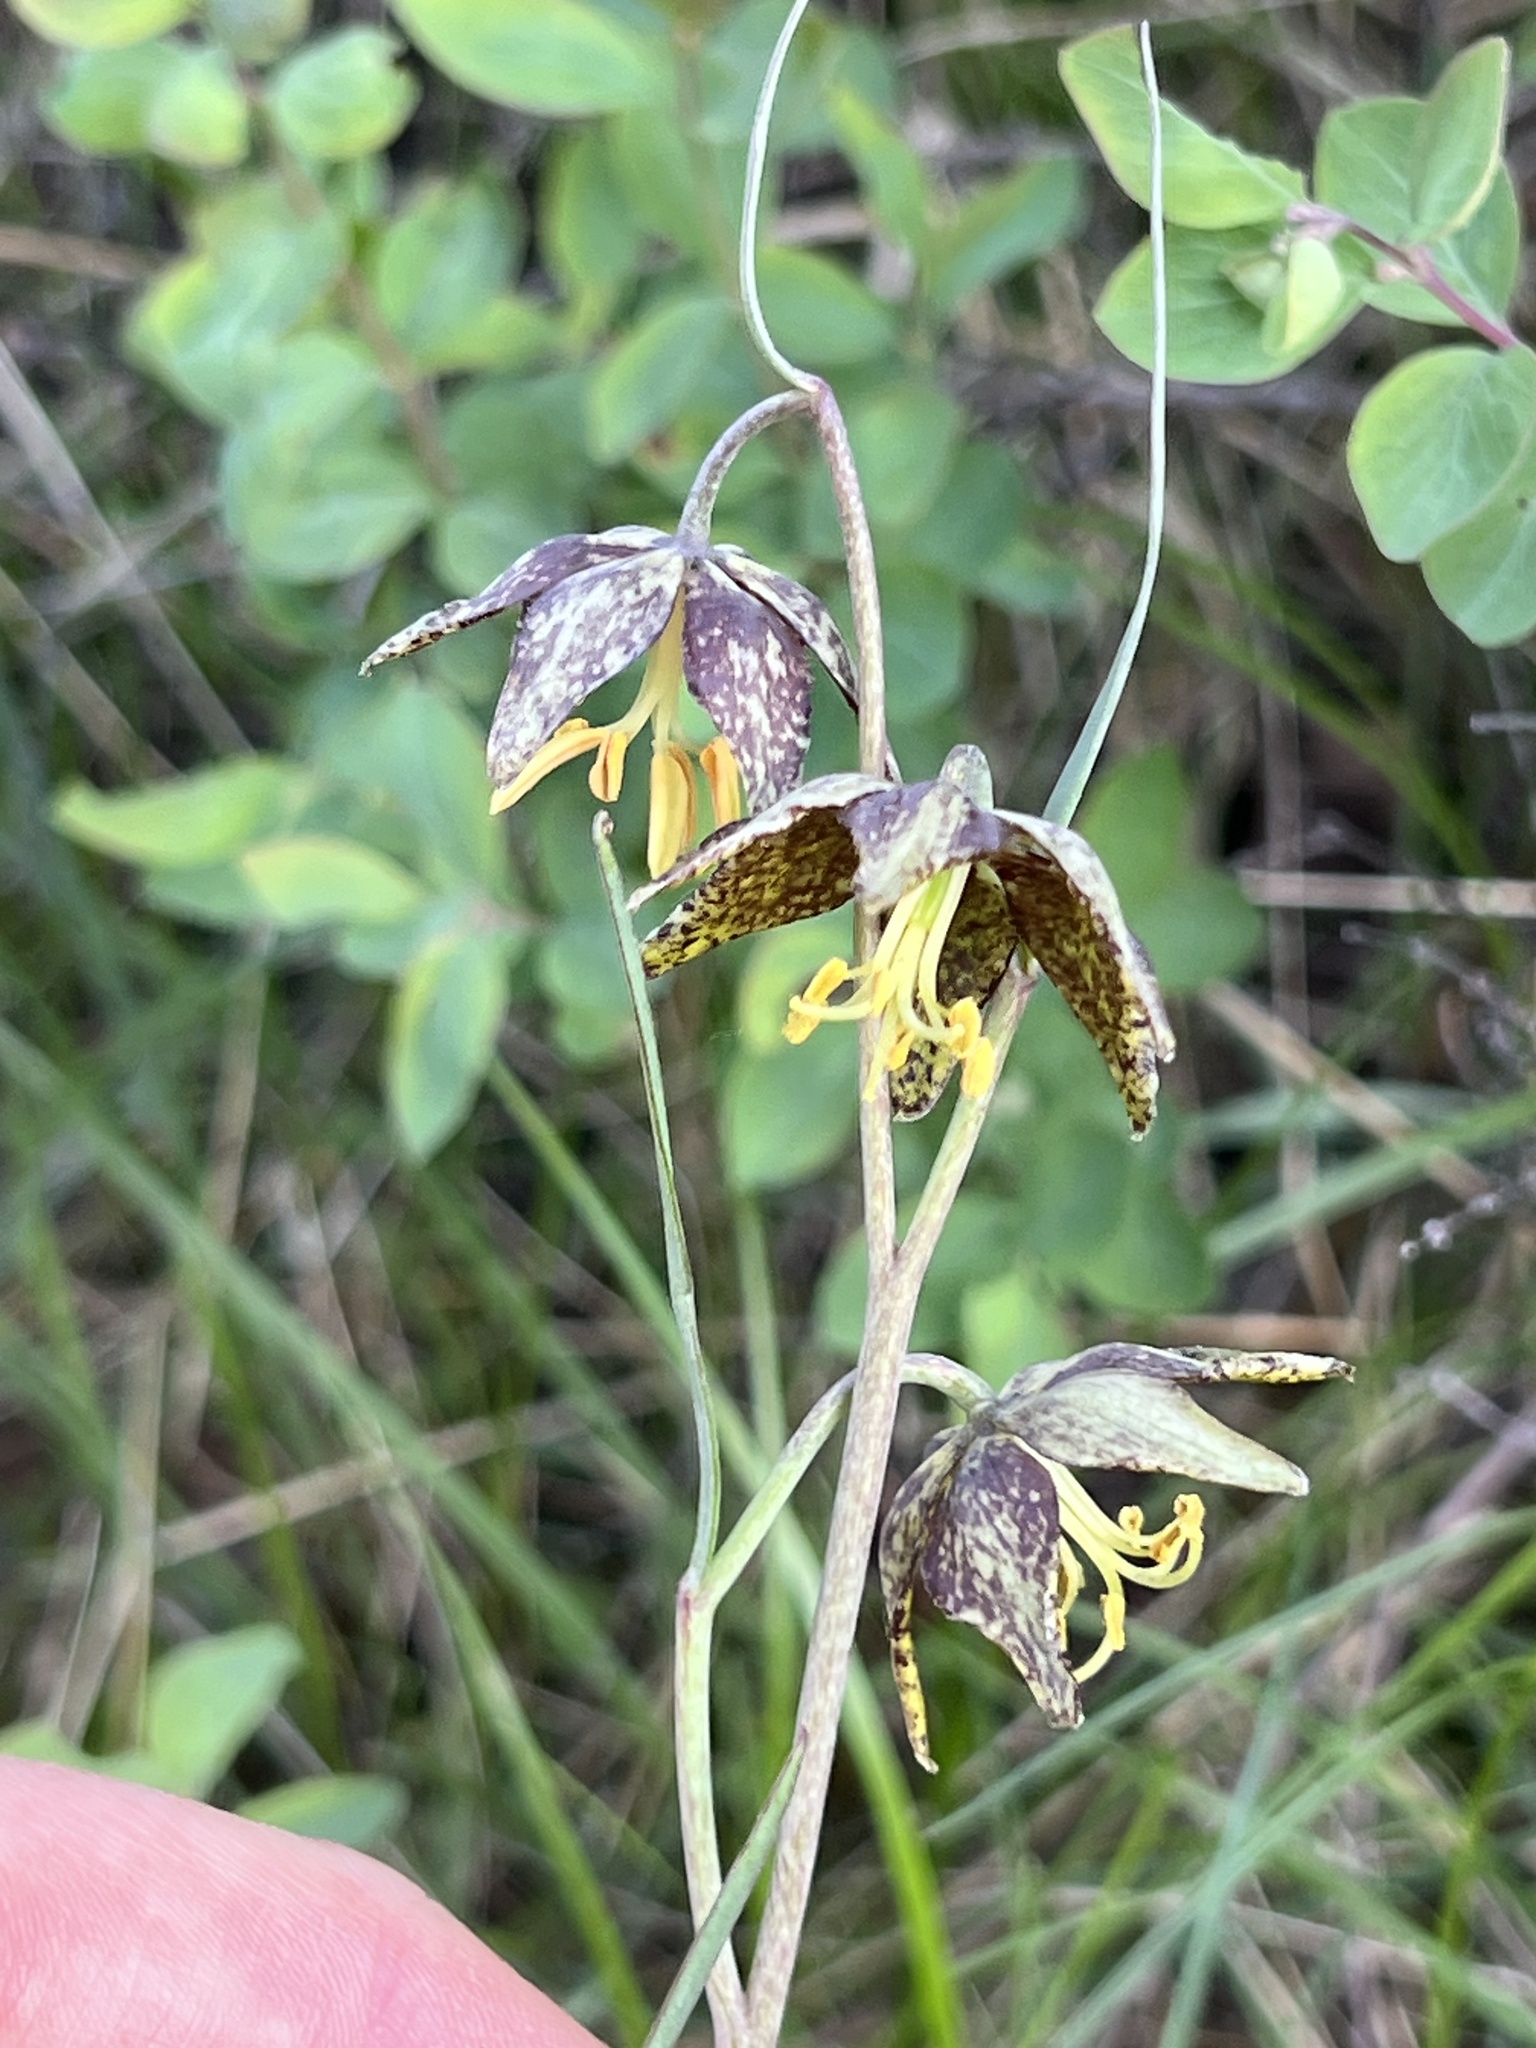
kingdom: Plantae
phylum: Tracheophyta
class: Liliopsida
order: Liliales
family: Liliaceae
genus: Fritillaria
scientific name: Fritillaria atropurpurea
